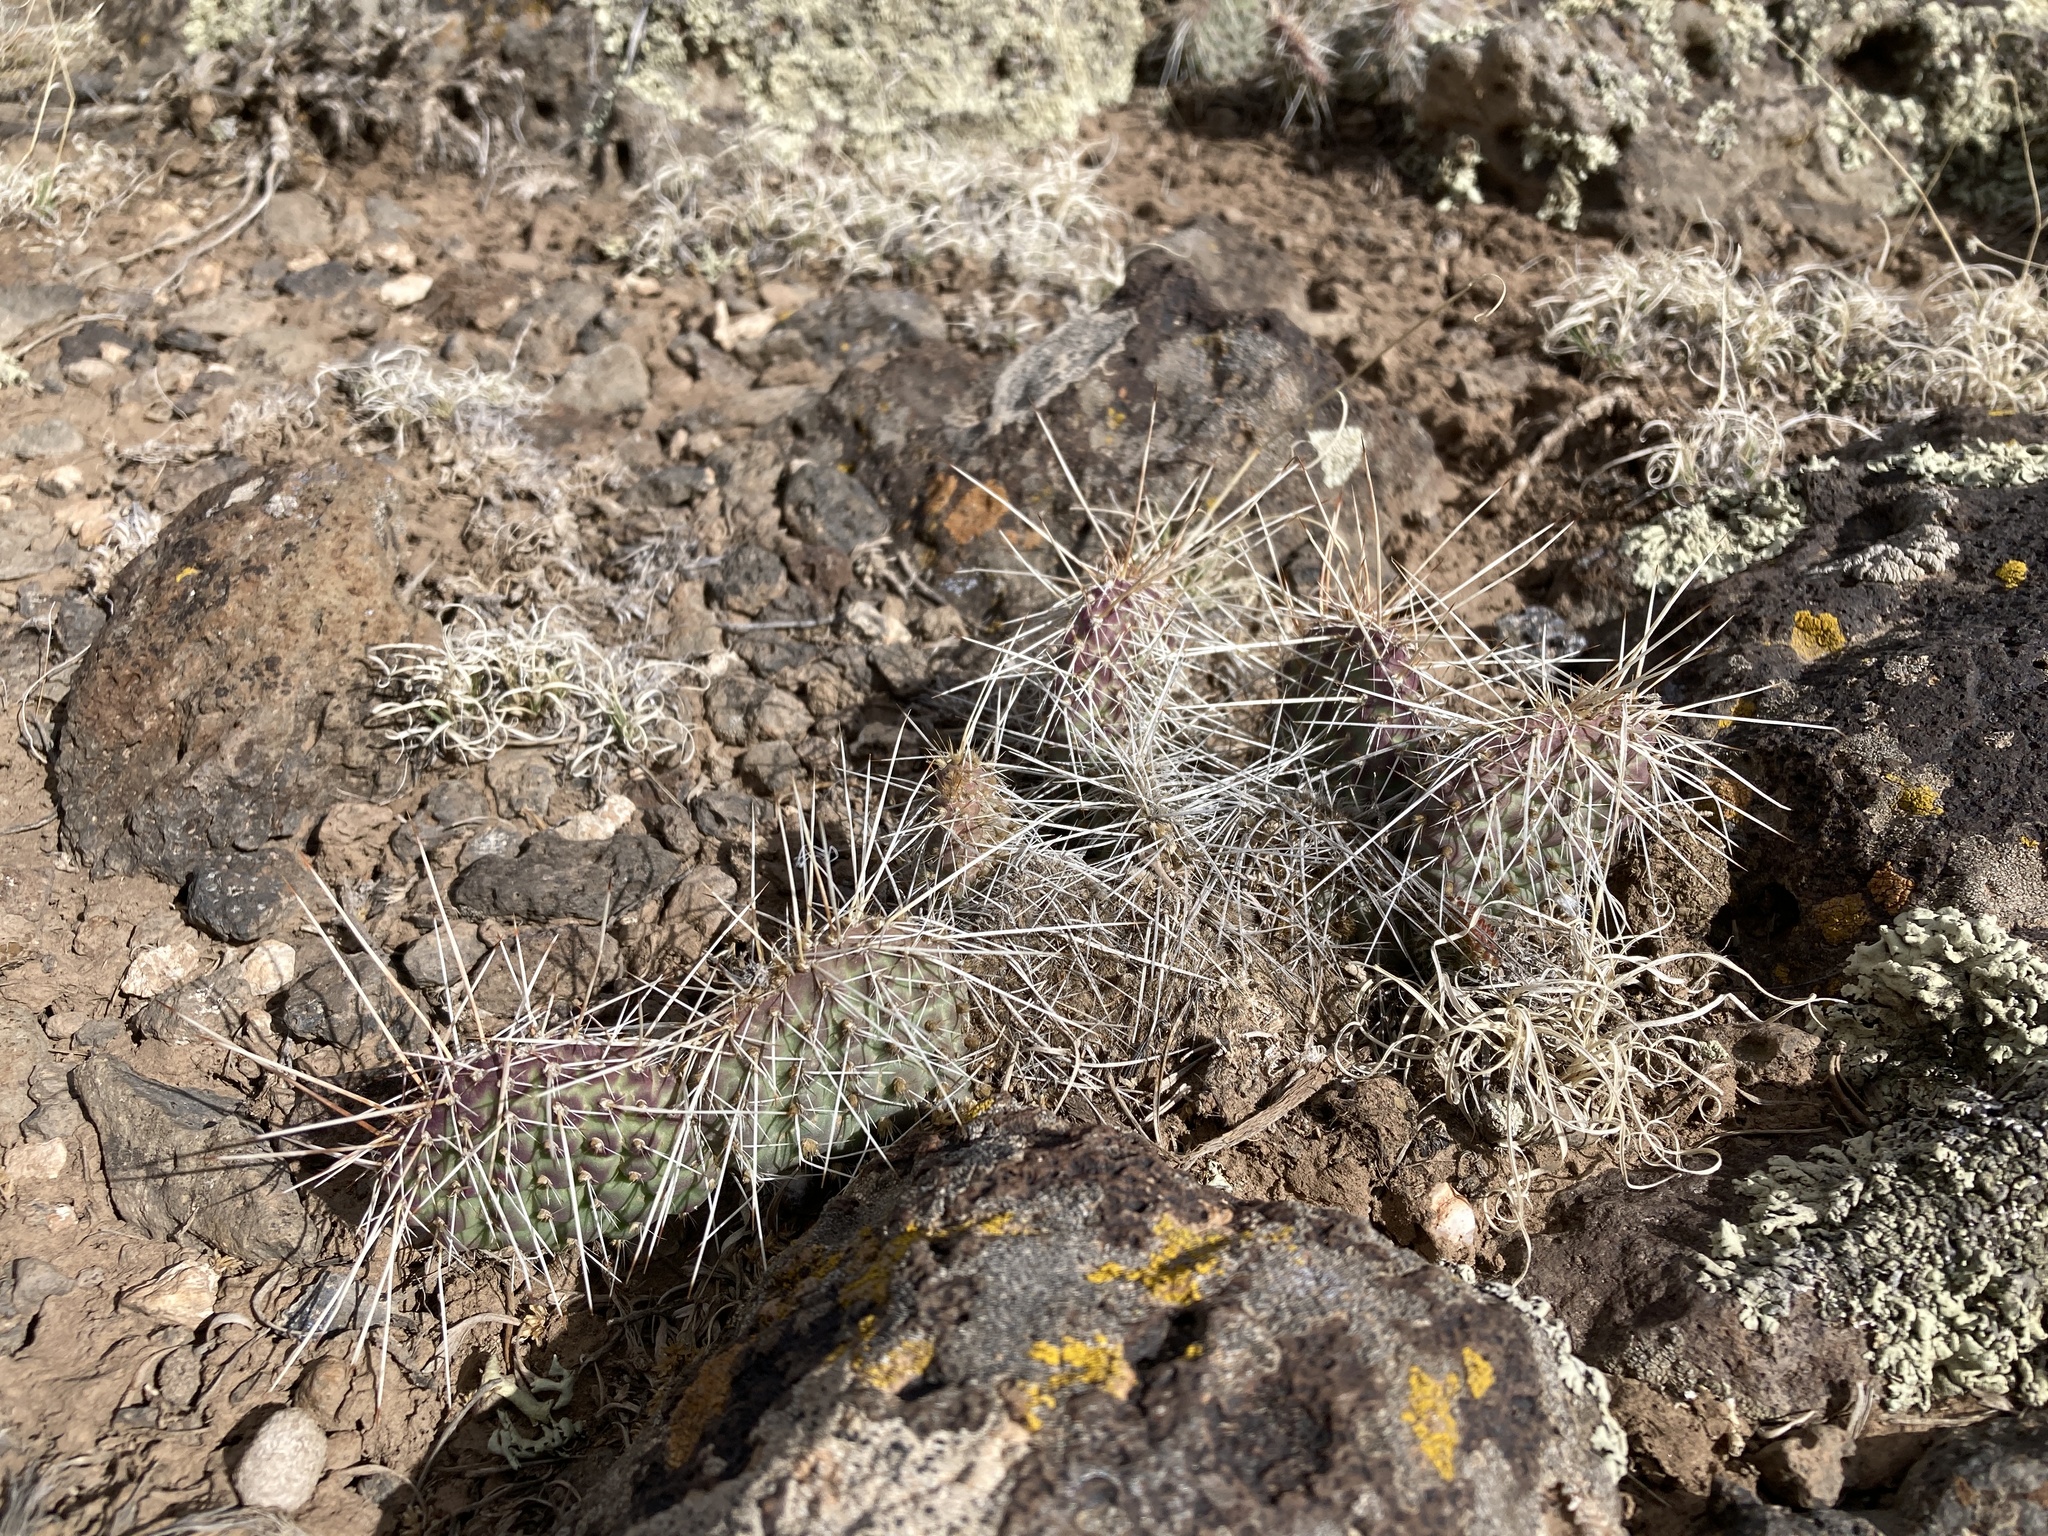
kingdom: Plantae
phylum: Tracheophyta
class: Magnoliopsida
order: Caryophyllales
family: Cactaceae
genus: Opuntia
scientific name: Opuntia polyacantha
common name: Plains prickly-pear
